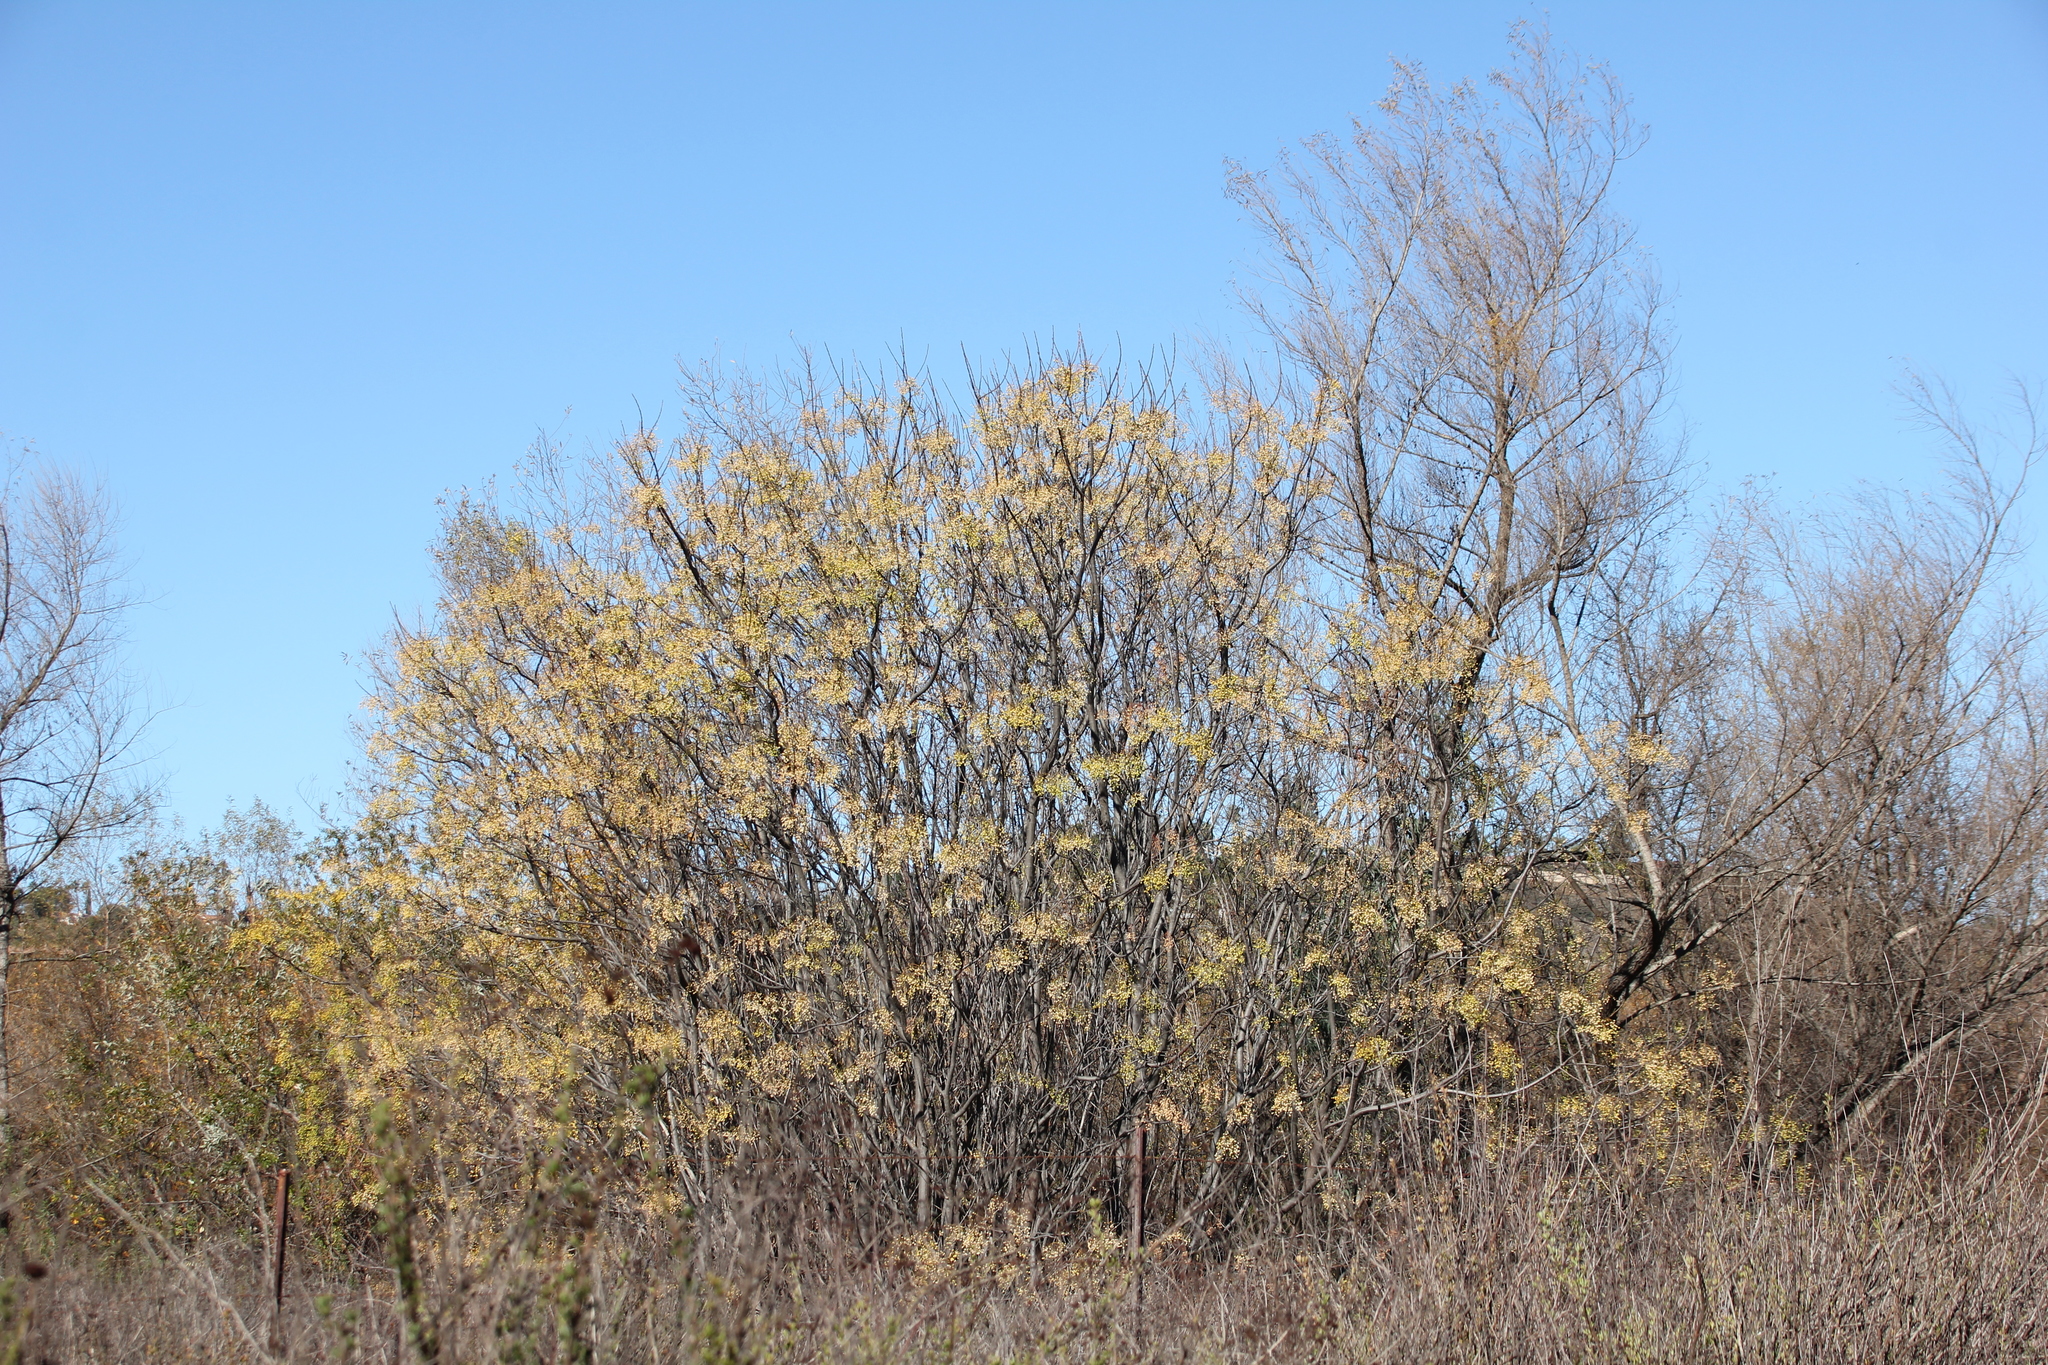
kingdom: Plantae
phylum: Tracheophyta
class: Magnoliopsida
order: Sapindales
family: Meliaceae
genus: Melia
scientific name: Melia azedarach
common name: Chinaberrytree
